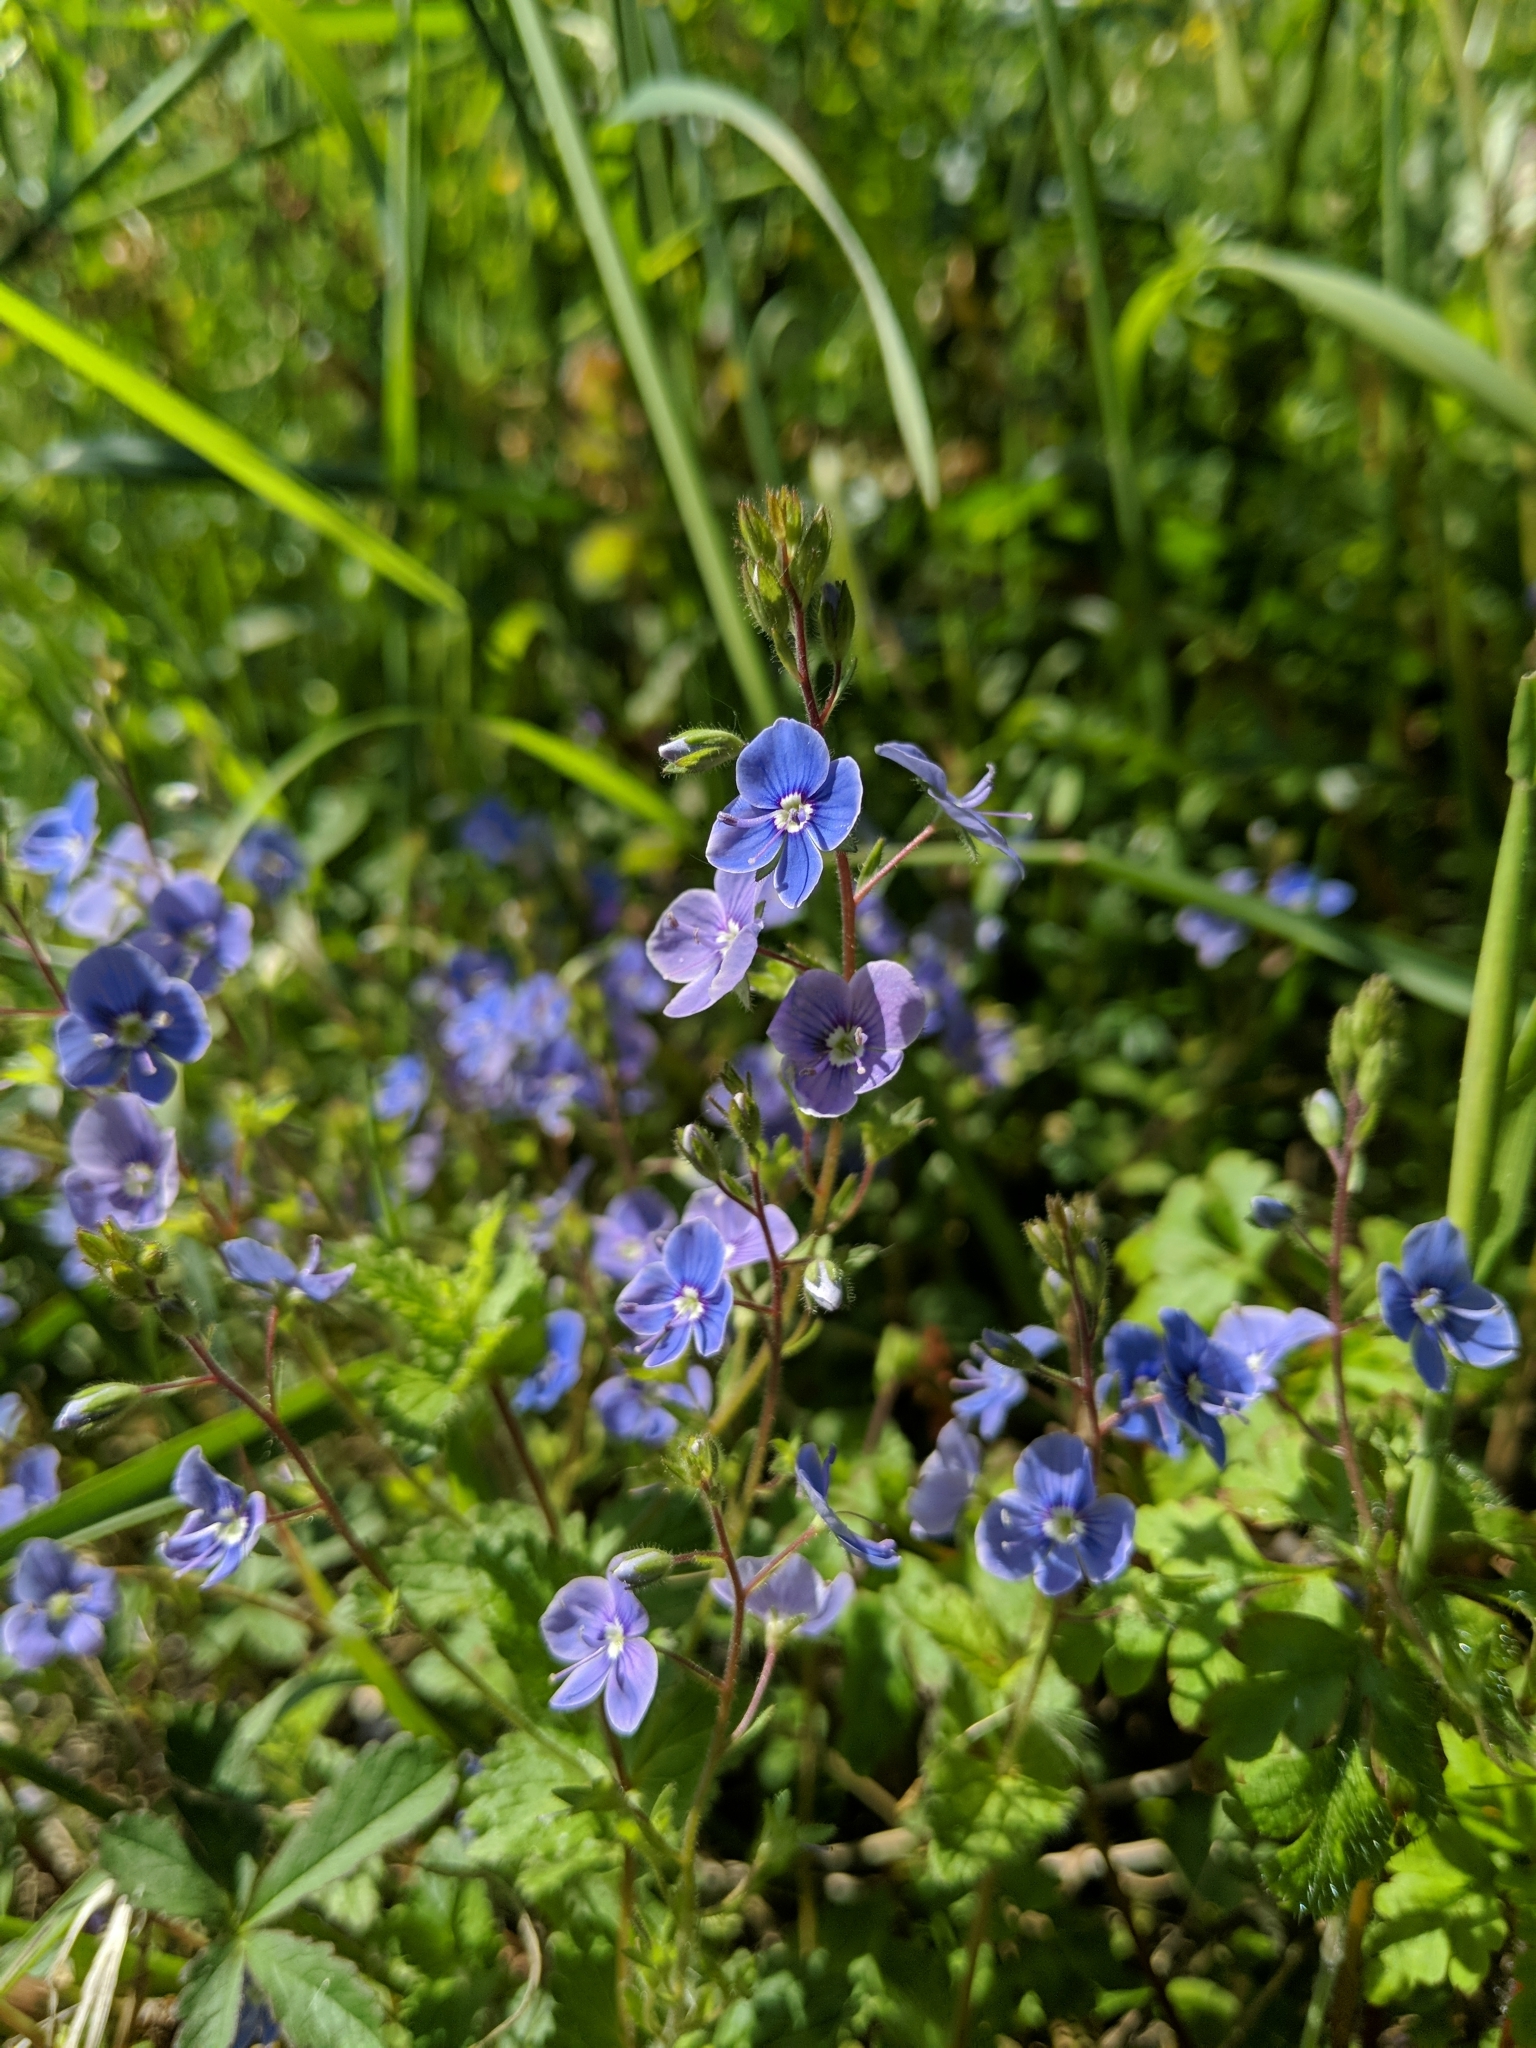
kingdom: Plantae
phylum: Tracheophyta
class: Magnoliopsida
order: Lamiales
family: Plantaginaceae
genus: Veronica
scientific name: Veronica chamaedrys
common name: Germander speedwell
